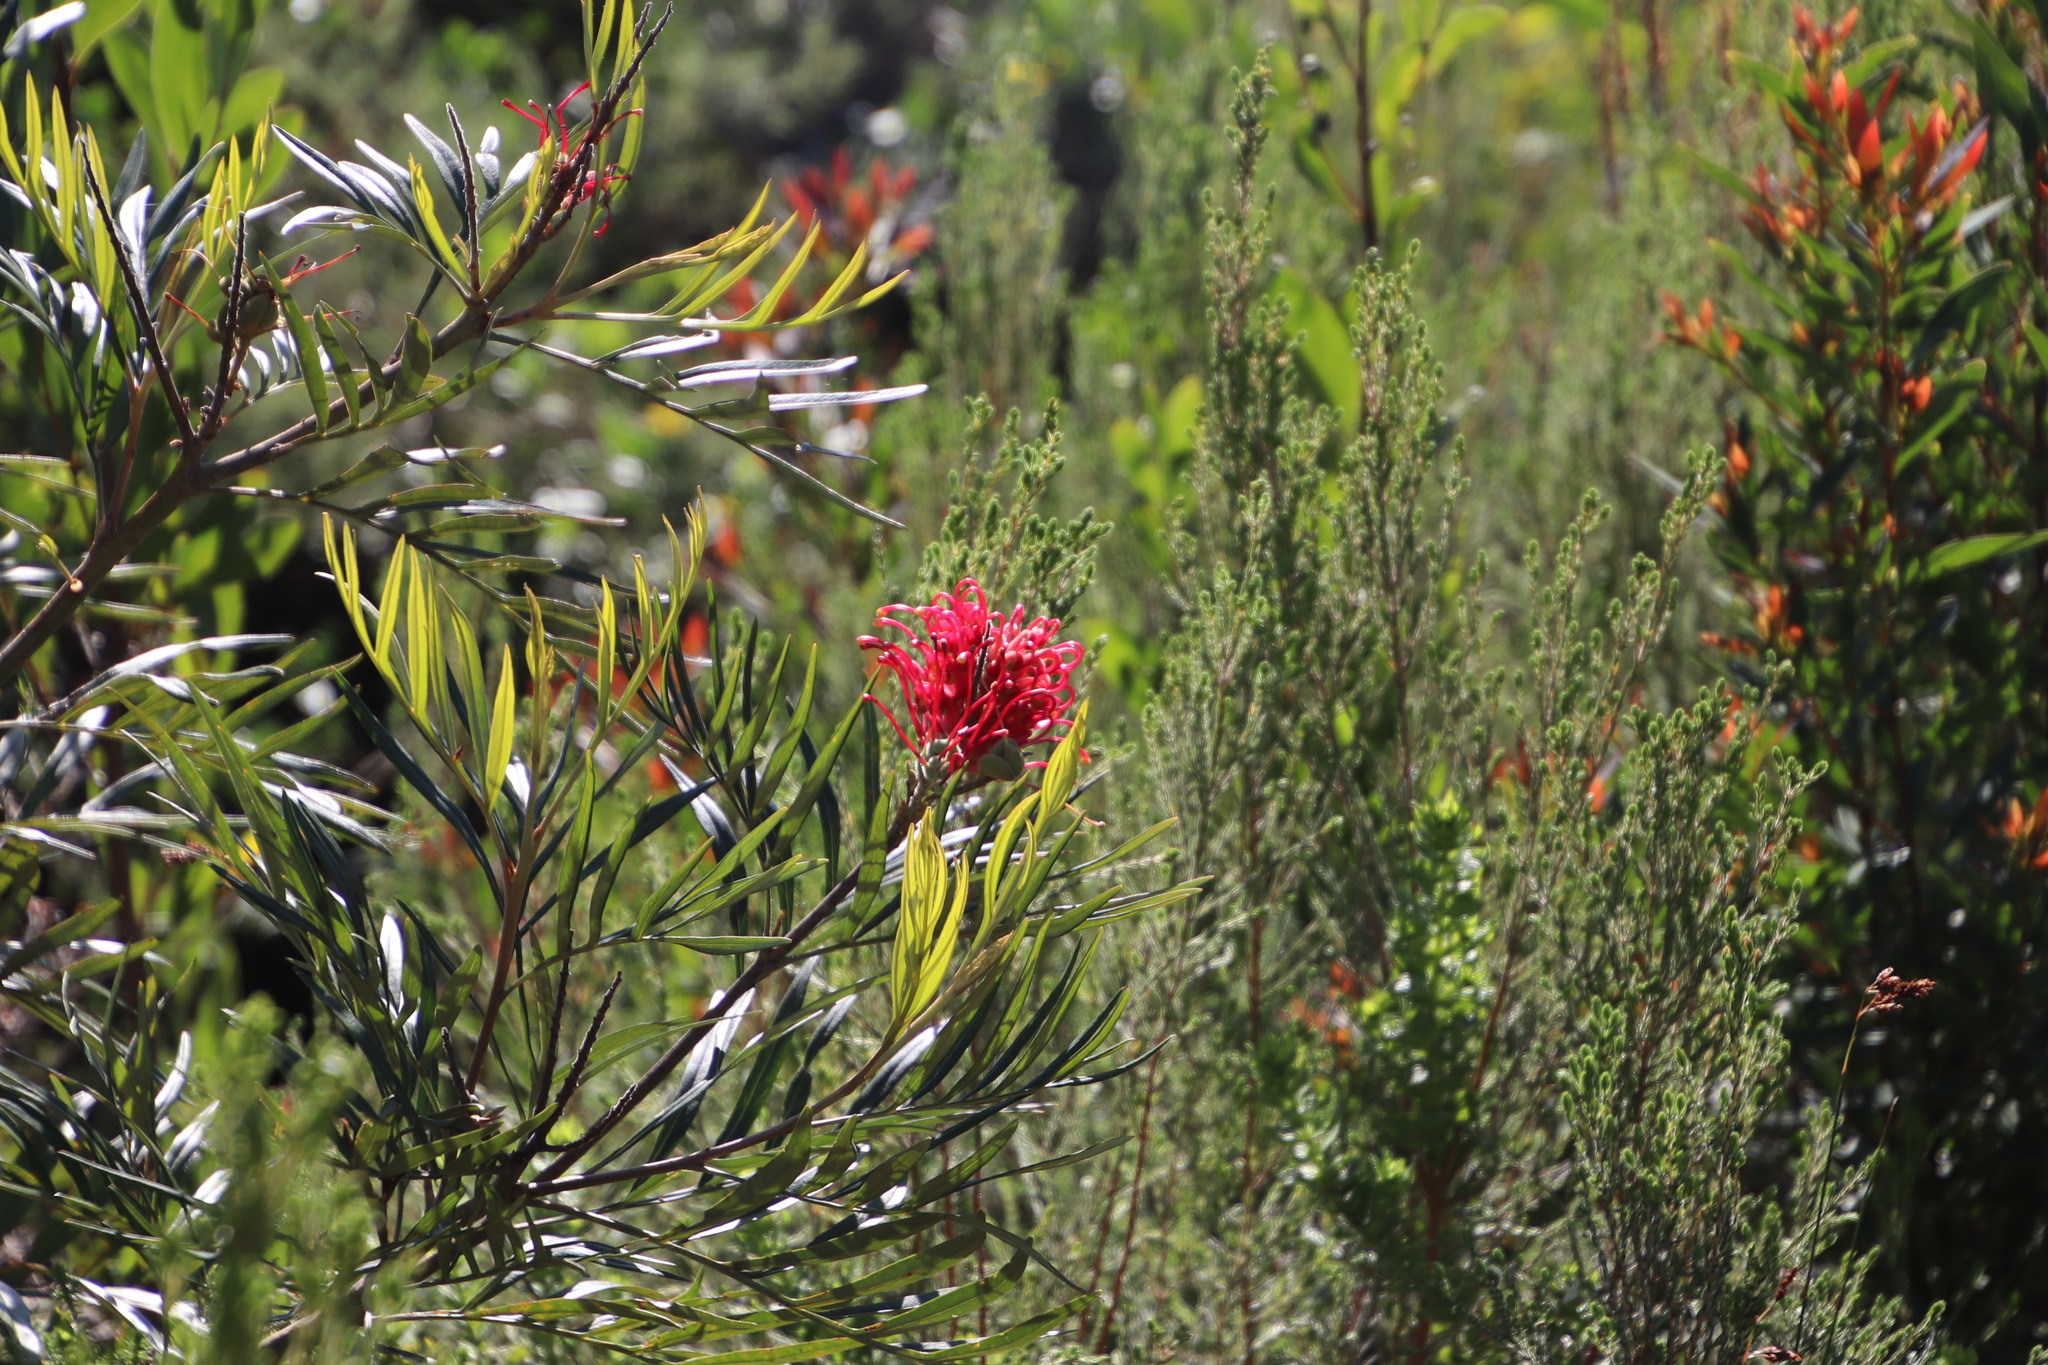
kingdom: Plantae
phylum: Tracheophyta
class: Magnoliopsida
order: Proteales
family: Proteaceae
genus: Grevillea
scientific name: Grevillea banksii
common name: Kahili flower
